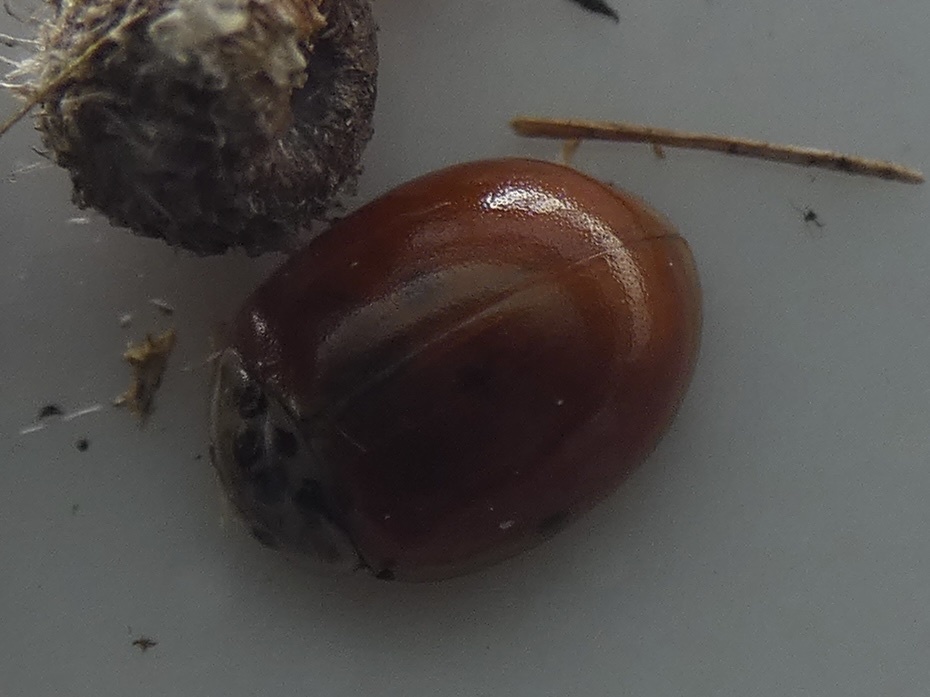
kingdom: Animalia
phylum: Arthropoda
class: Insecta
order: Coleoptera
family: Coccinellidae
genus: Adalia
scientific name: Adalia decempunctata
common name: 10-spot ladybird
